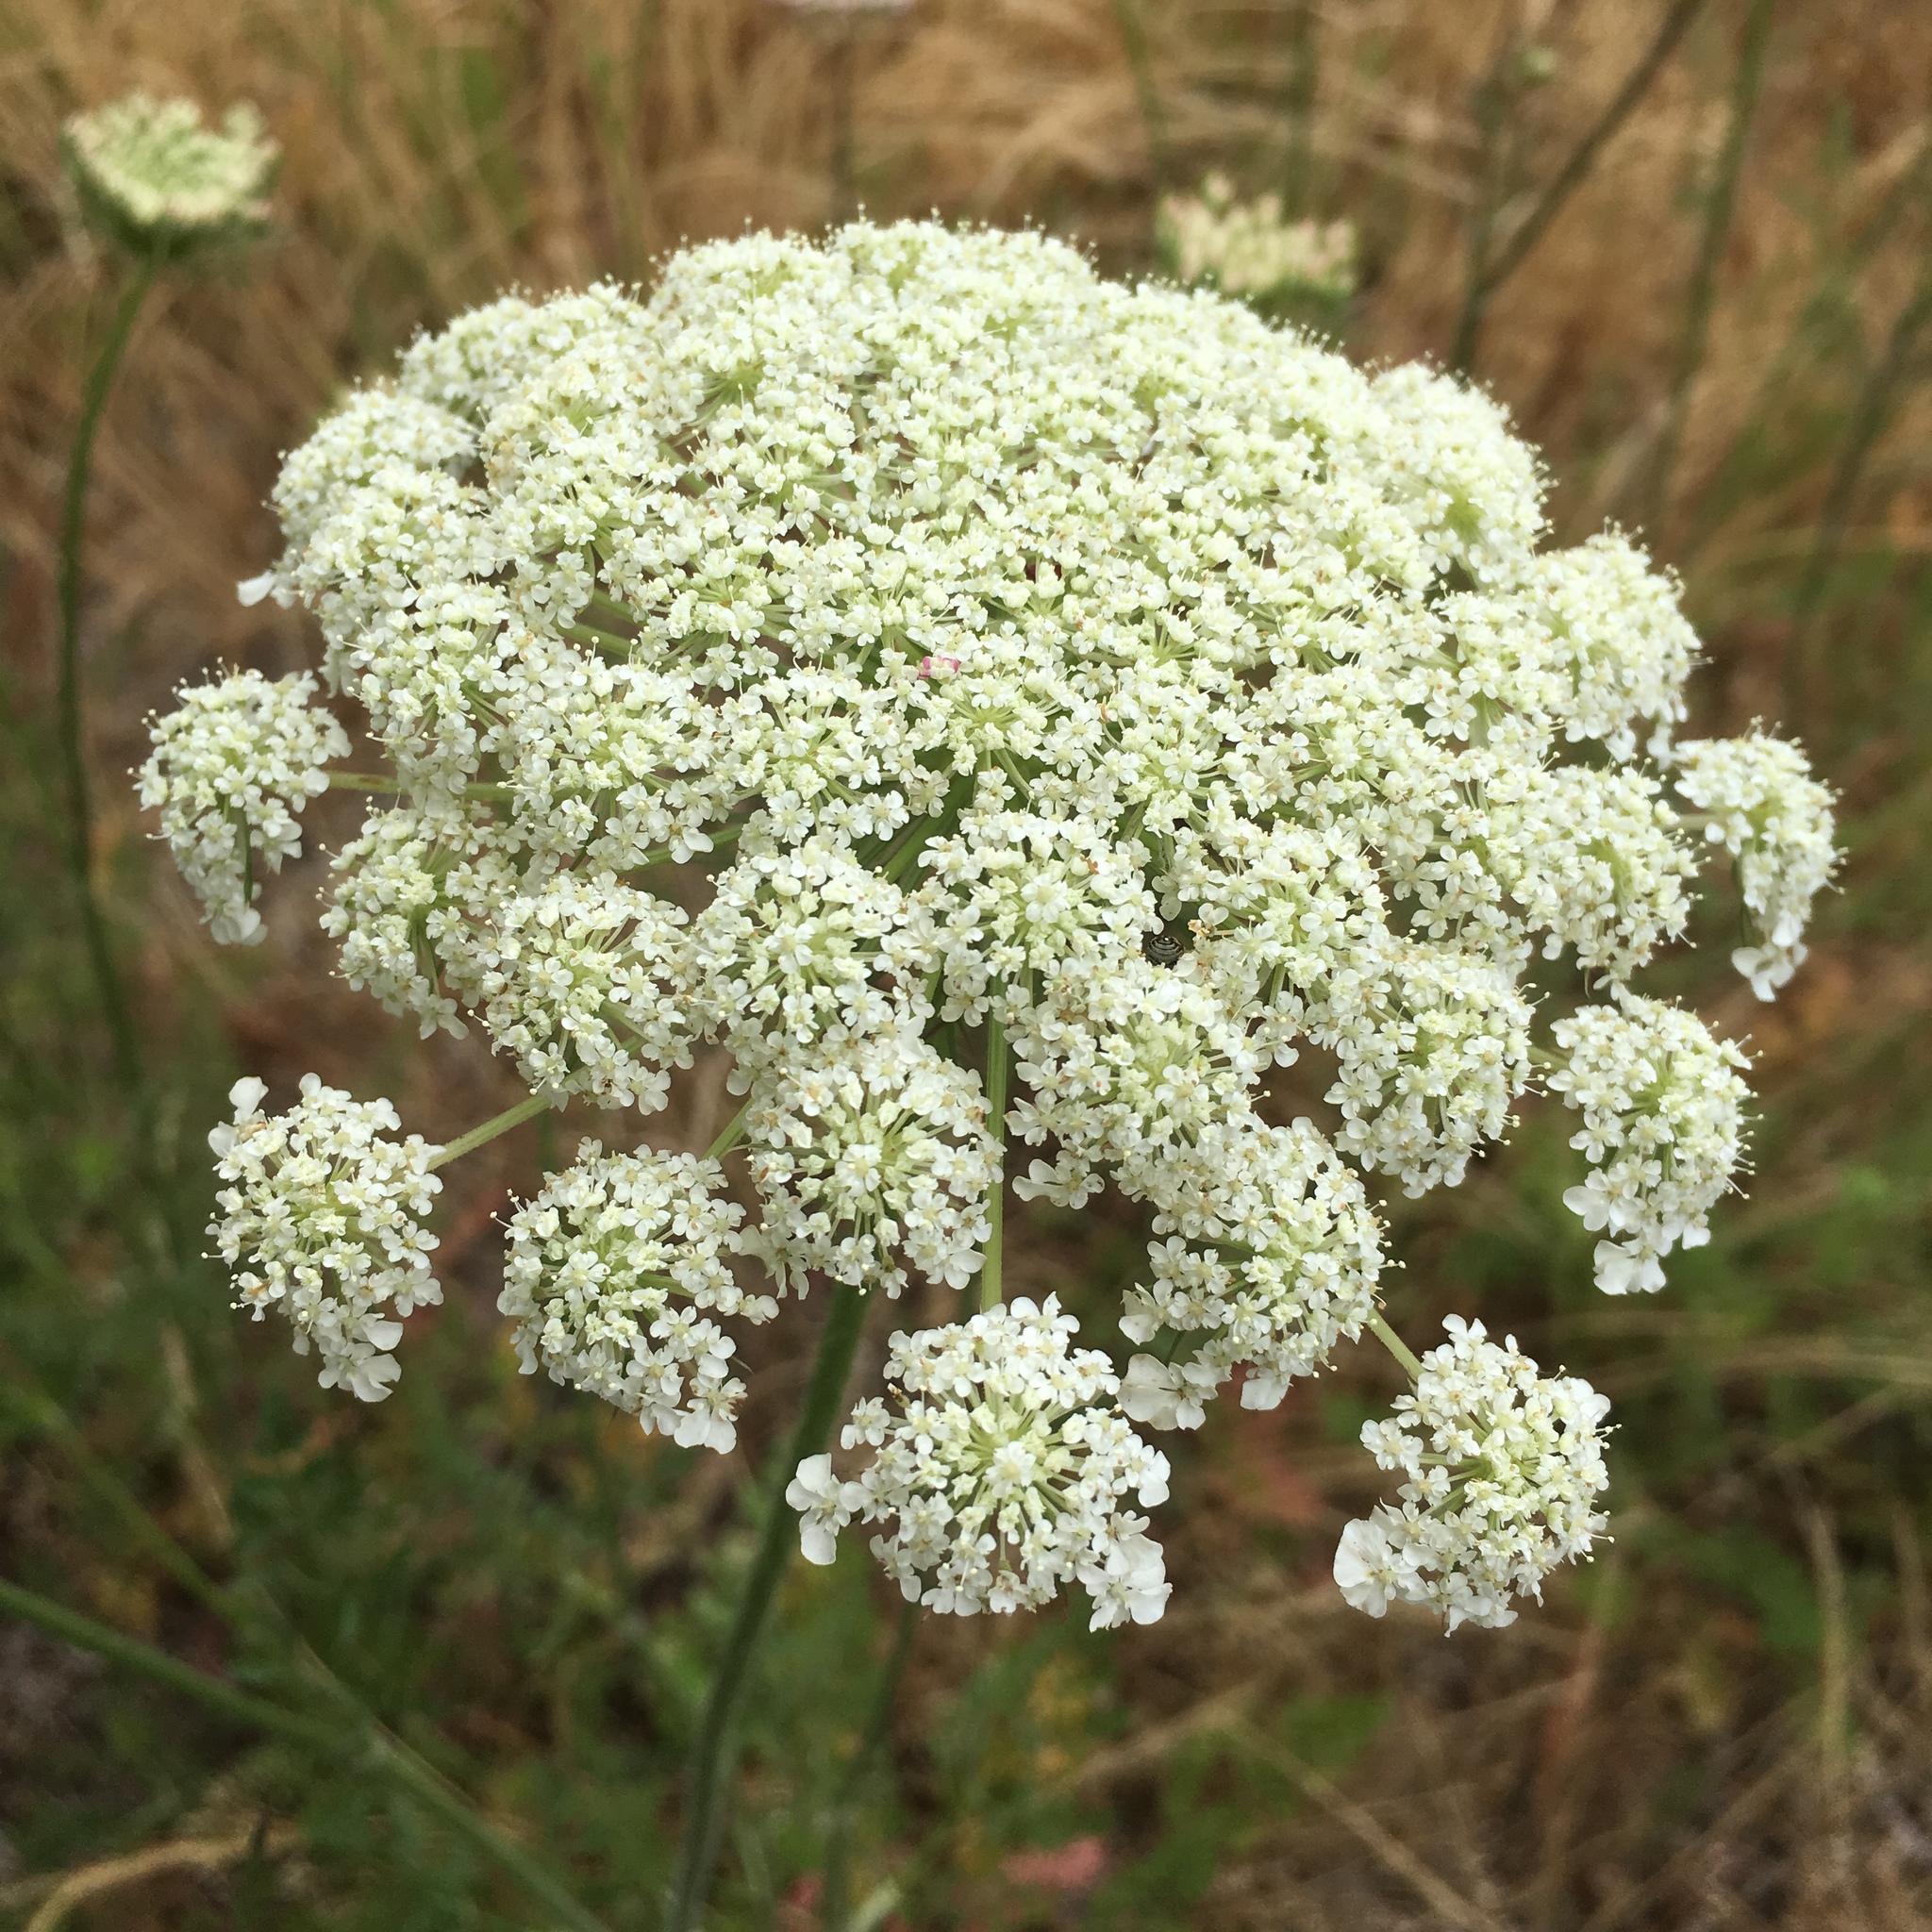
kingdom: Plantae
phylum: Tracheophyta
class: Magnoliopsida
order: Apiales
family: Apiaceae
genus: Daucus
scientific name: Daucus carota
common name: Wild carrot
